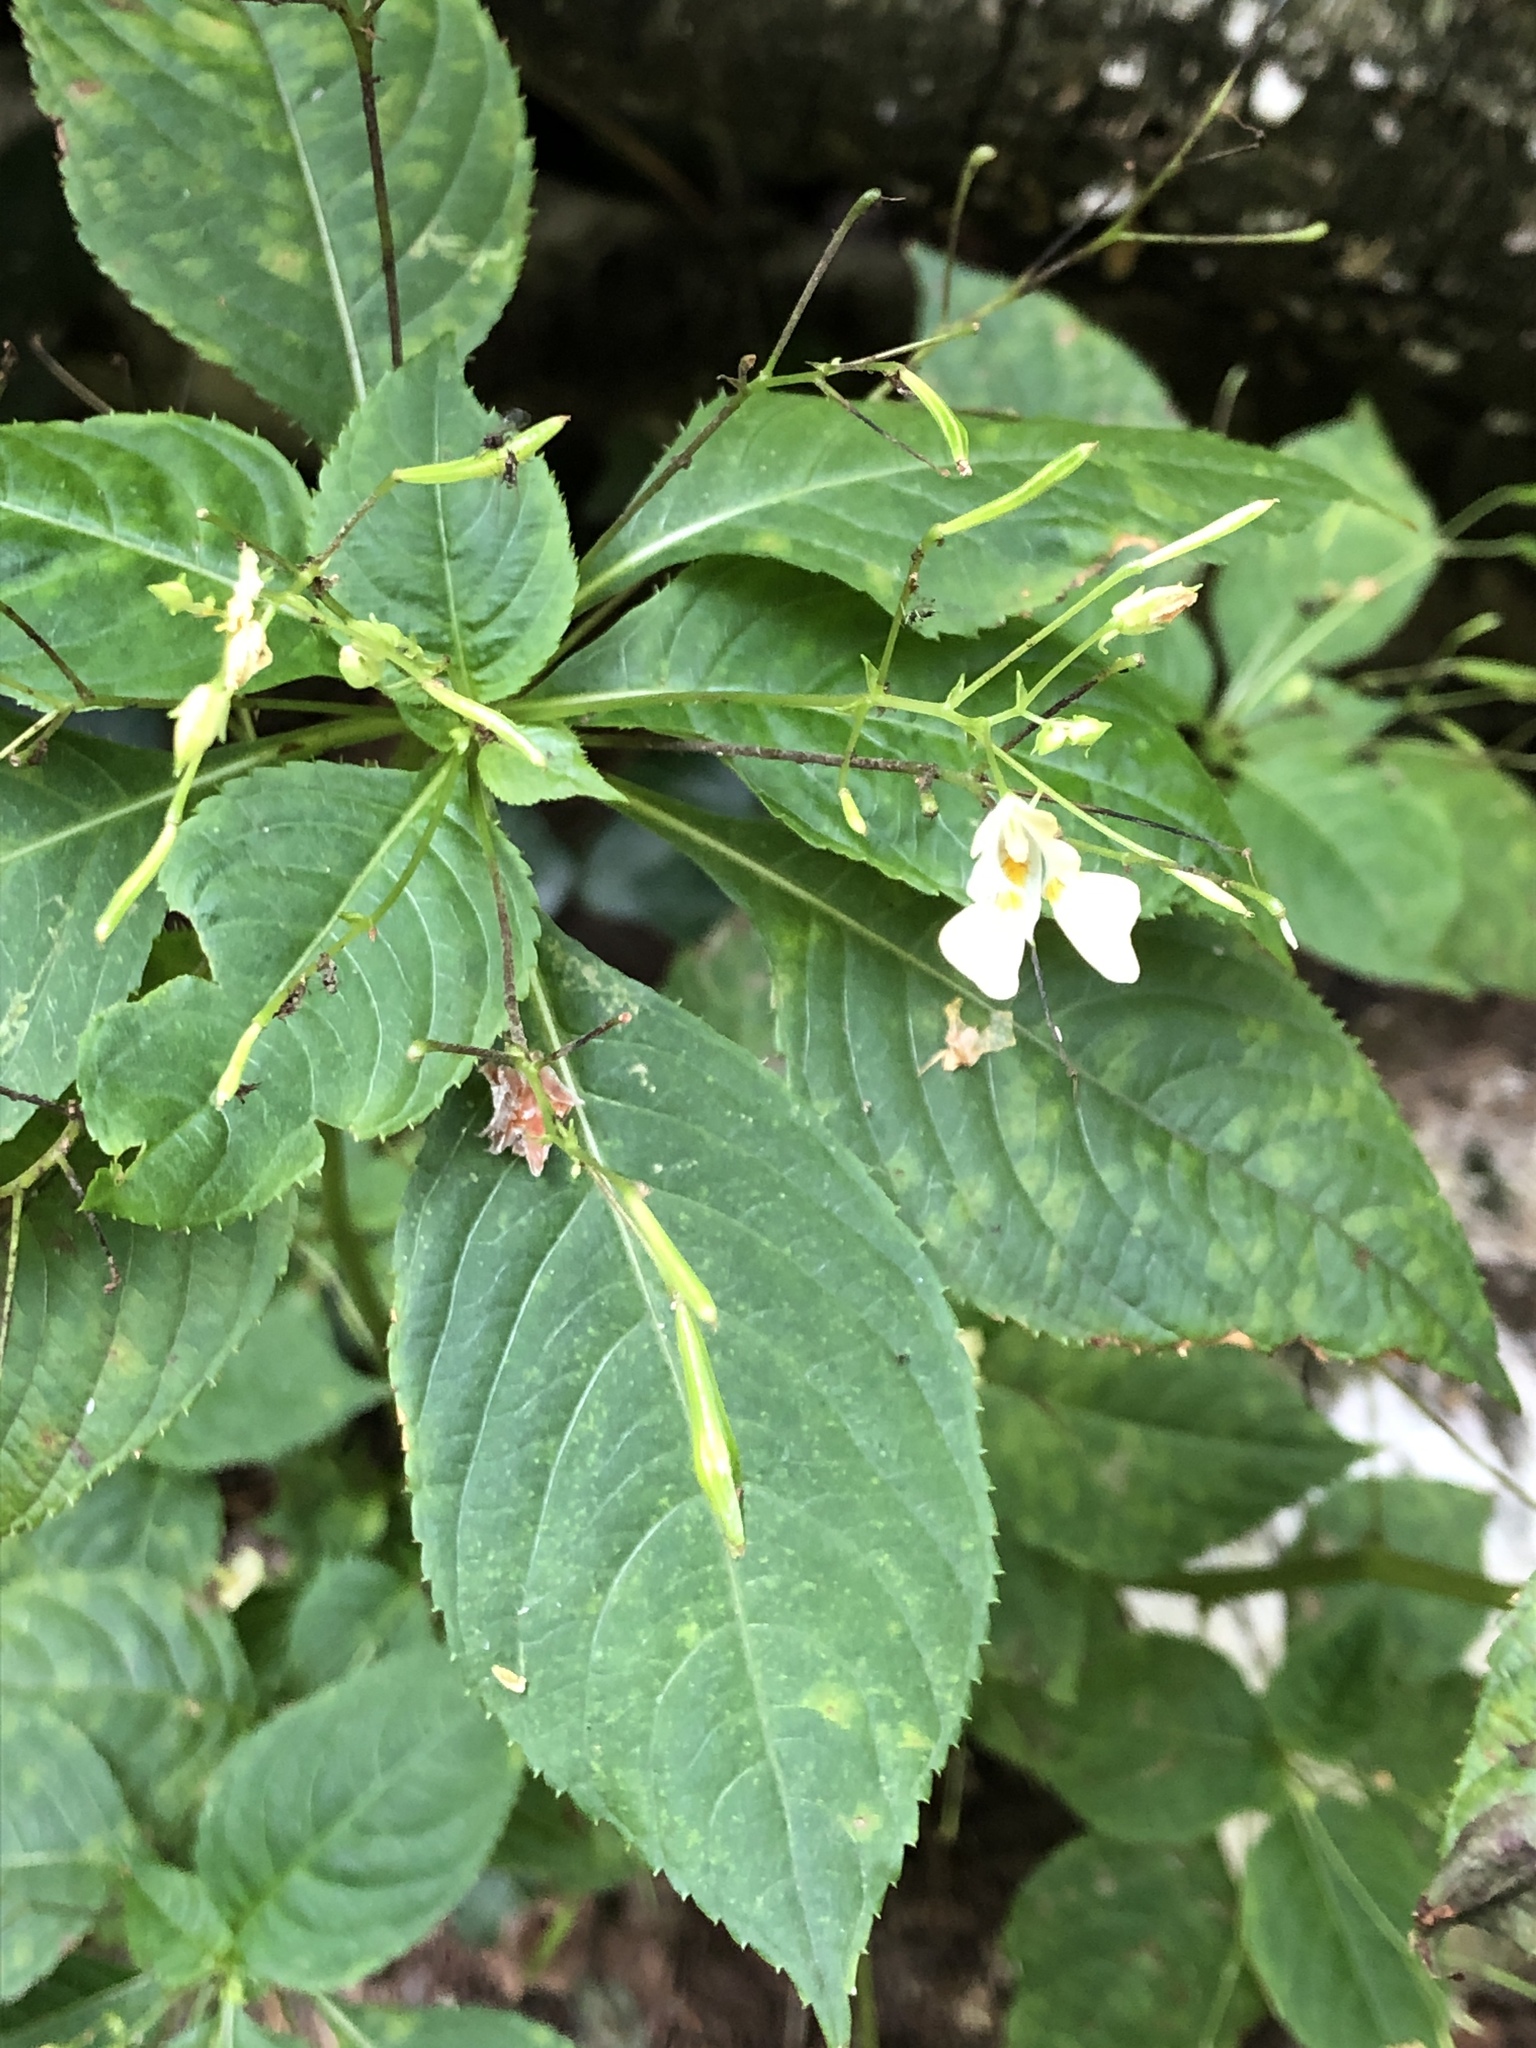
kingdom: Plantae
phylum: Tracheophyta
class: Magnoliopsida
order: Ericales
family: Balsaminaceae
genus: Impatiens
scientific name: Impatiens parviflora
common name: Small balsam
